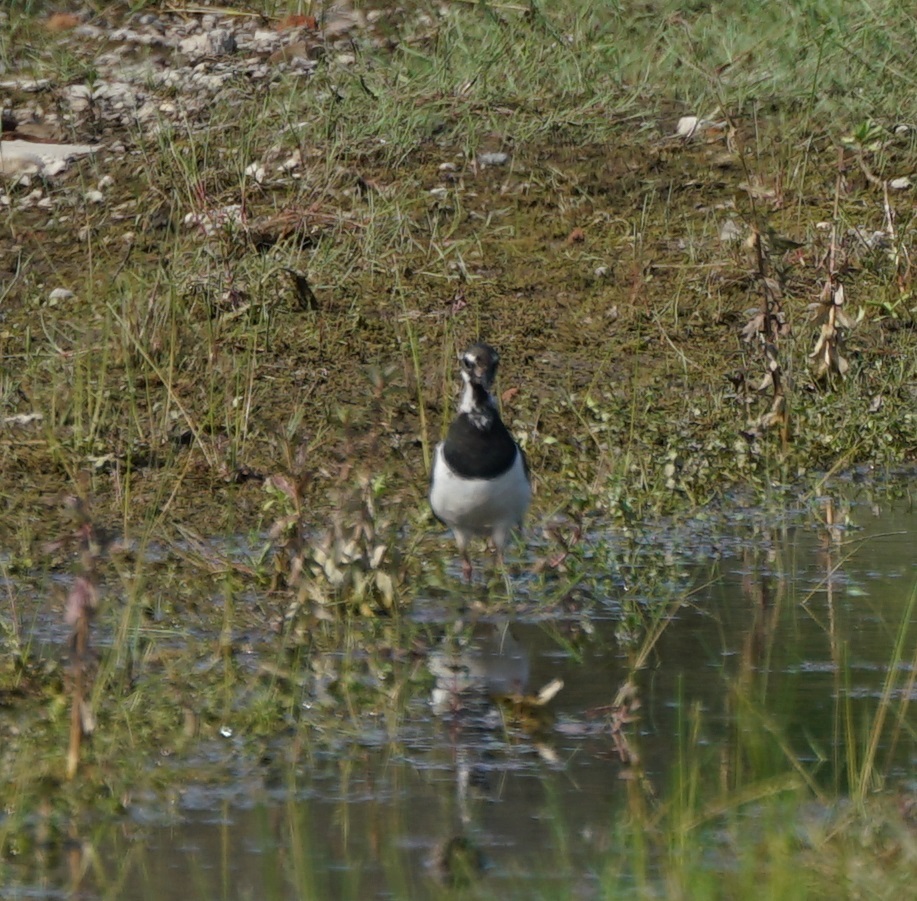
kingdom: Animalia
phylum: Chordata
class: Aves
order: Charadriiformes
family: Charadriidae
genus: Vanellus
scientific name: Vanellus vanellus
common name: Northern lapwing
